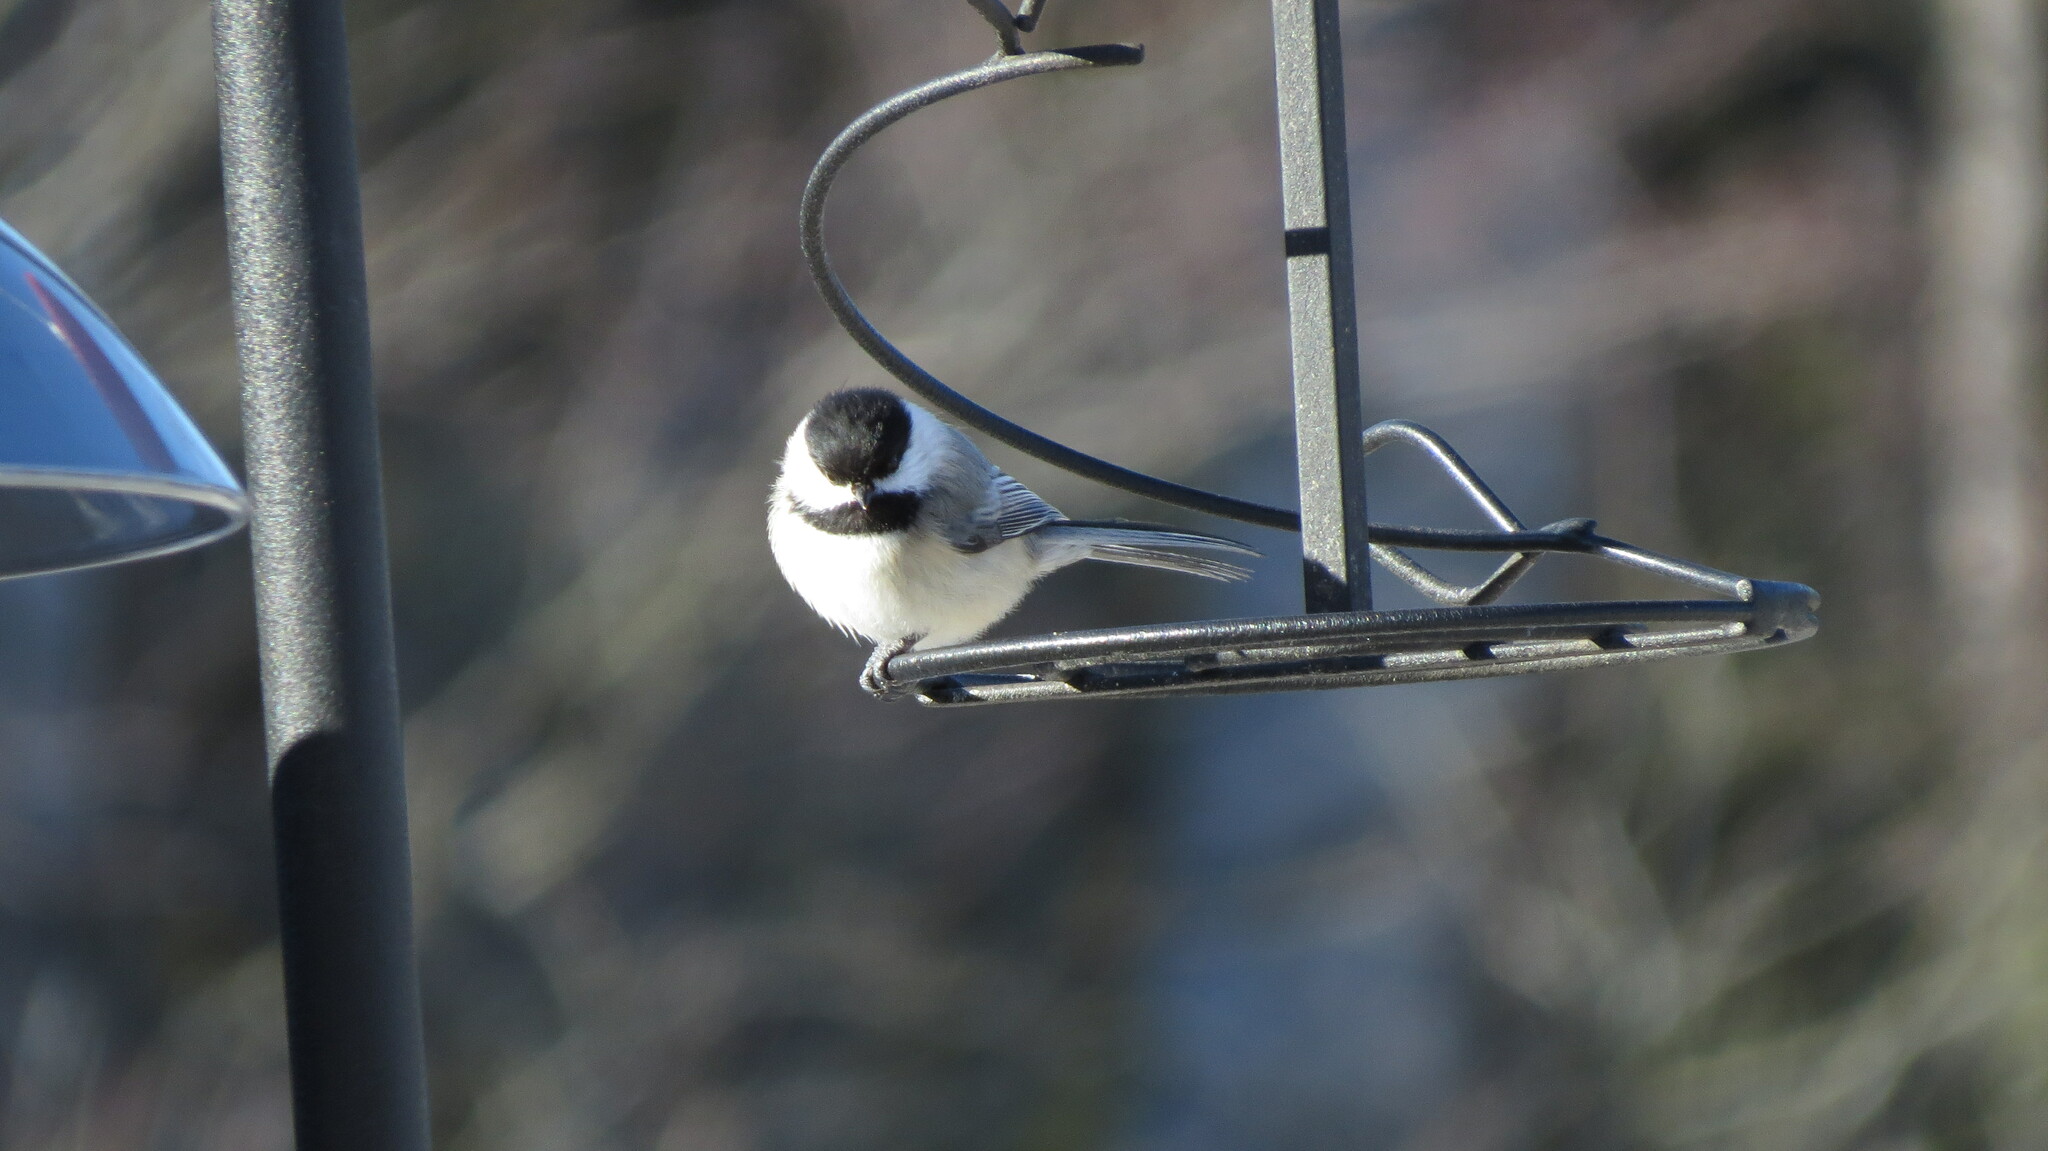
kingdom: Animalia
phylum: Chordata
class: Aves
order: Passeriformes
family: Paridae
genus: Poecile
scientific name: Poecile atricapillus
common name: Black-capped chickadee
